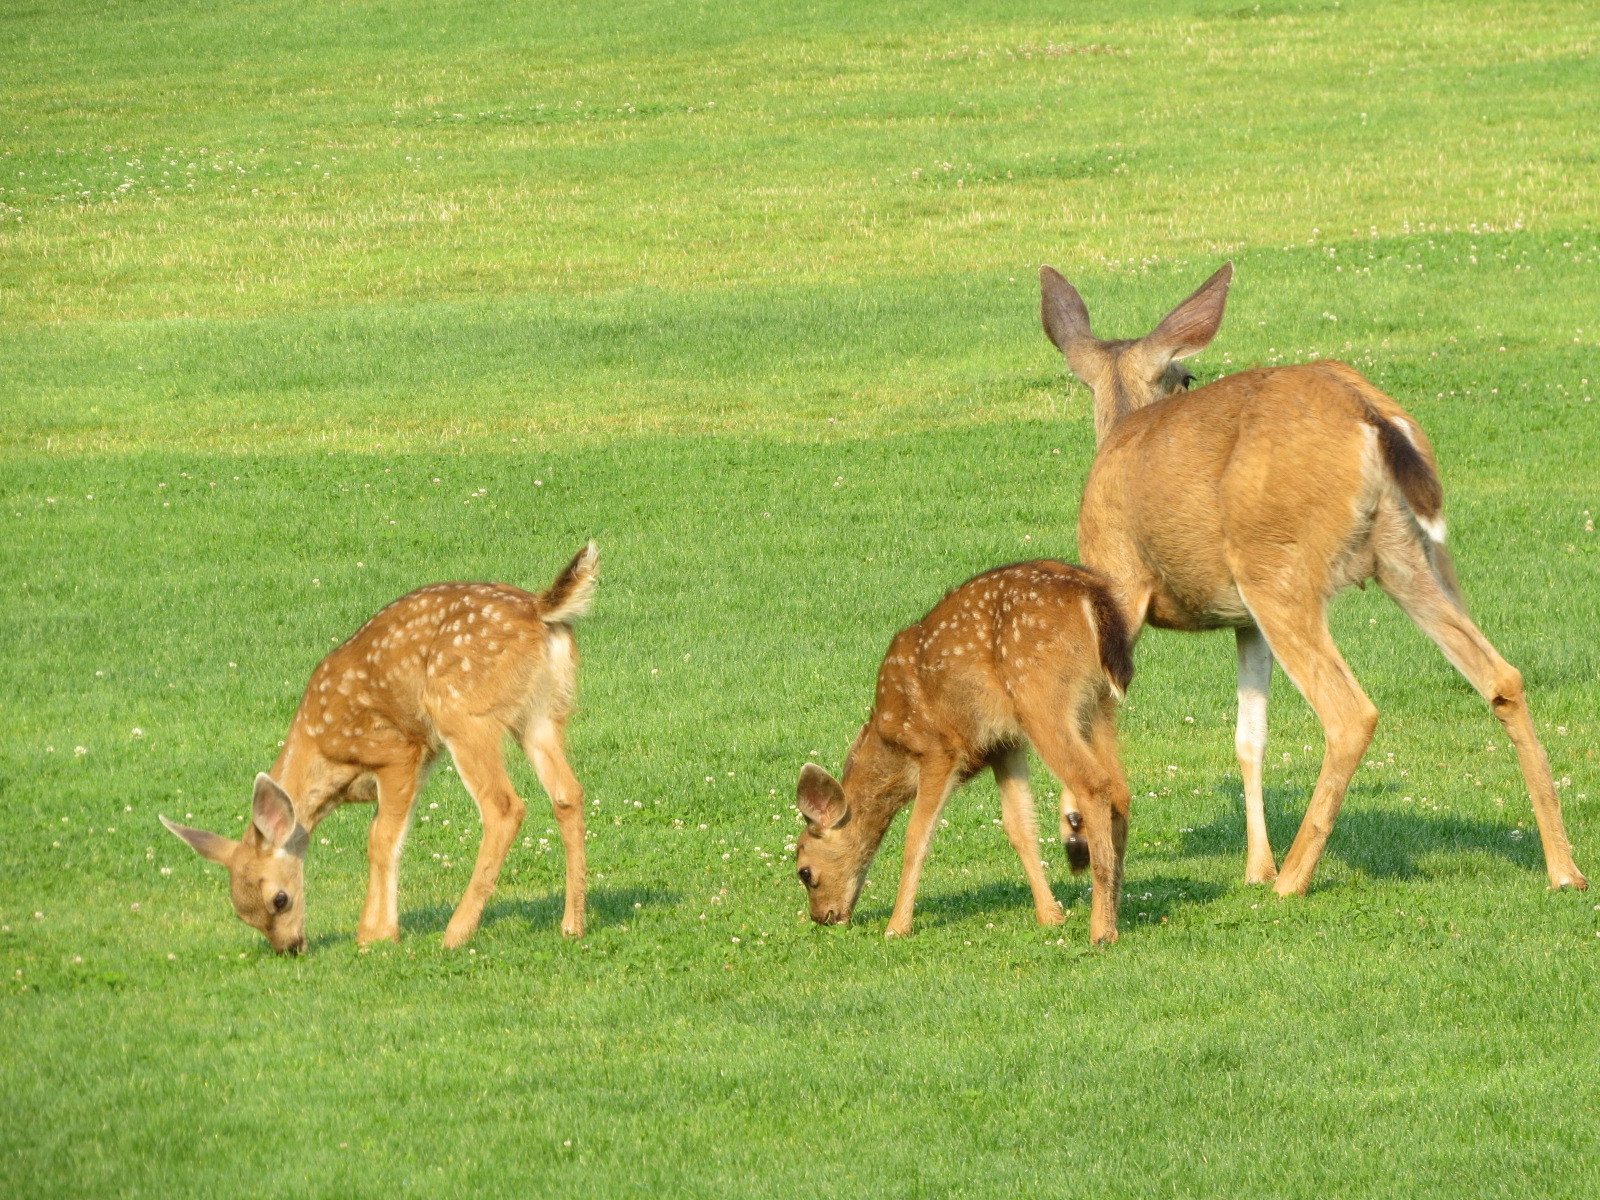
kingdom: Animalia
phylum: Chordata
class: Mammalia
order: Artiodactyla
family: Cervidae
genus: Odocoileus
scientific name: Odocoileus hemionus
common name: Mule deer
